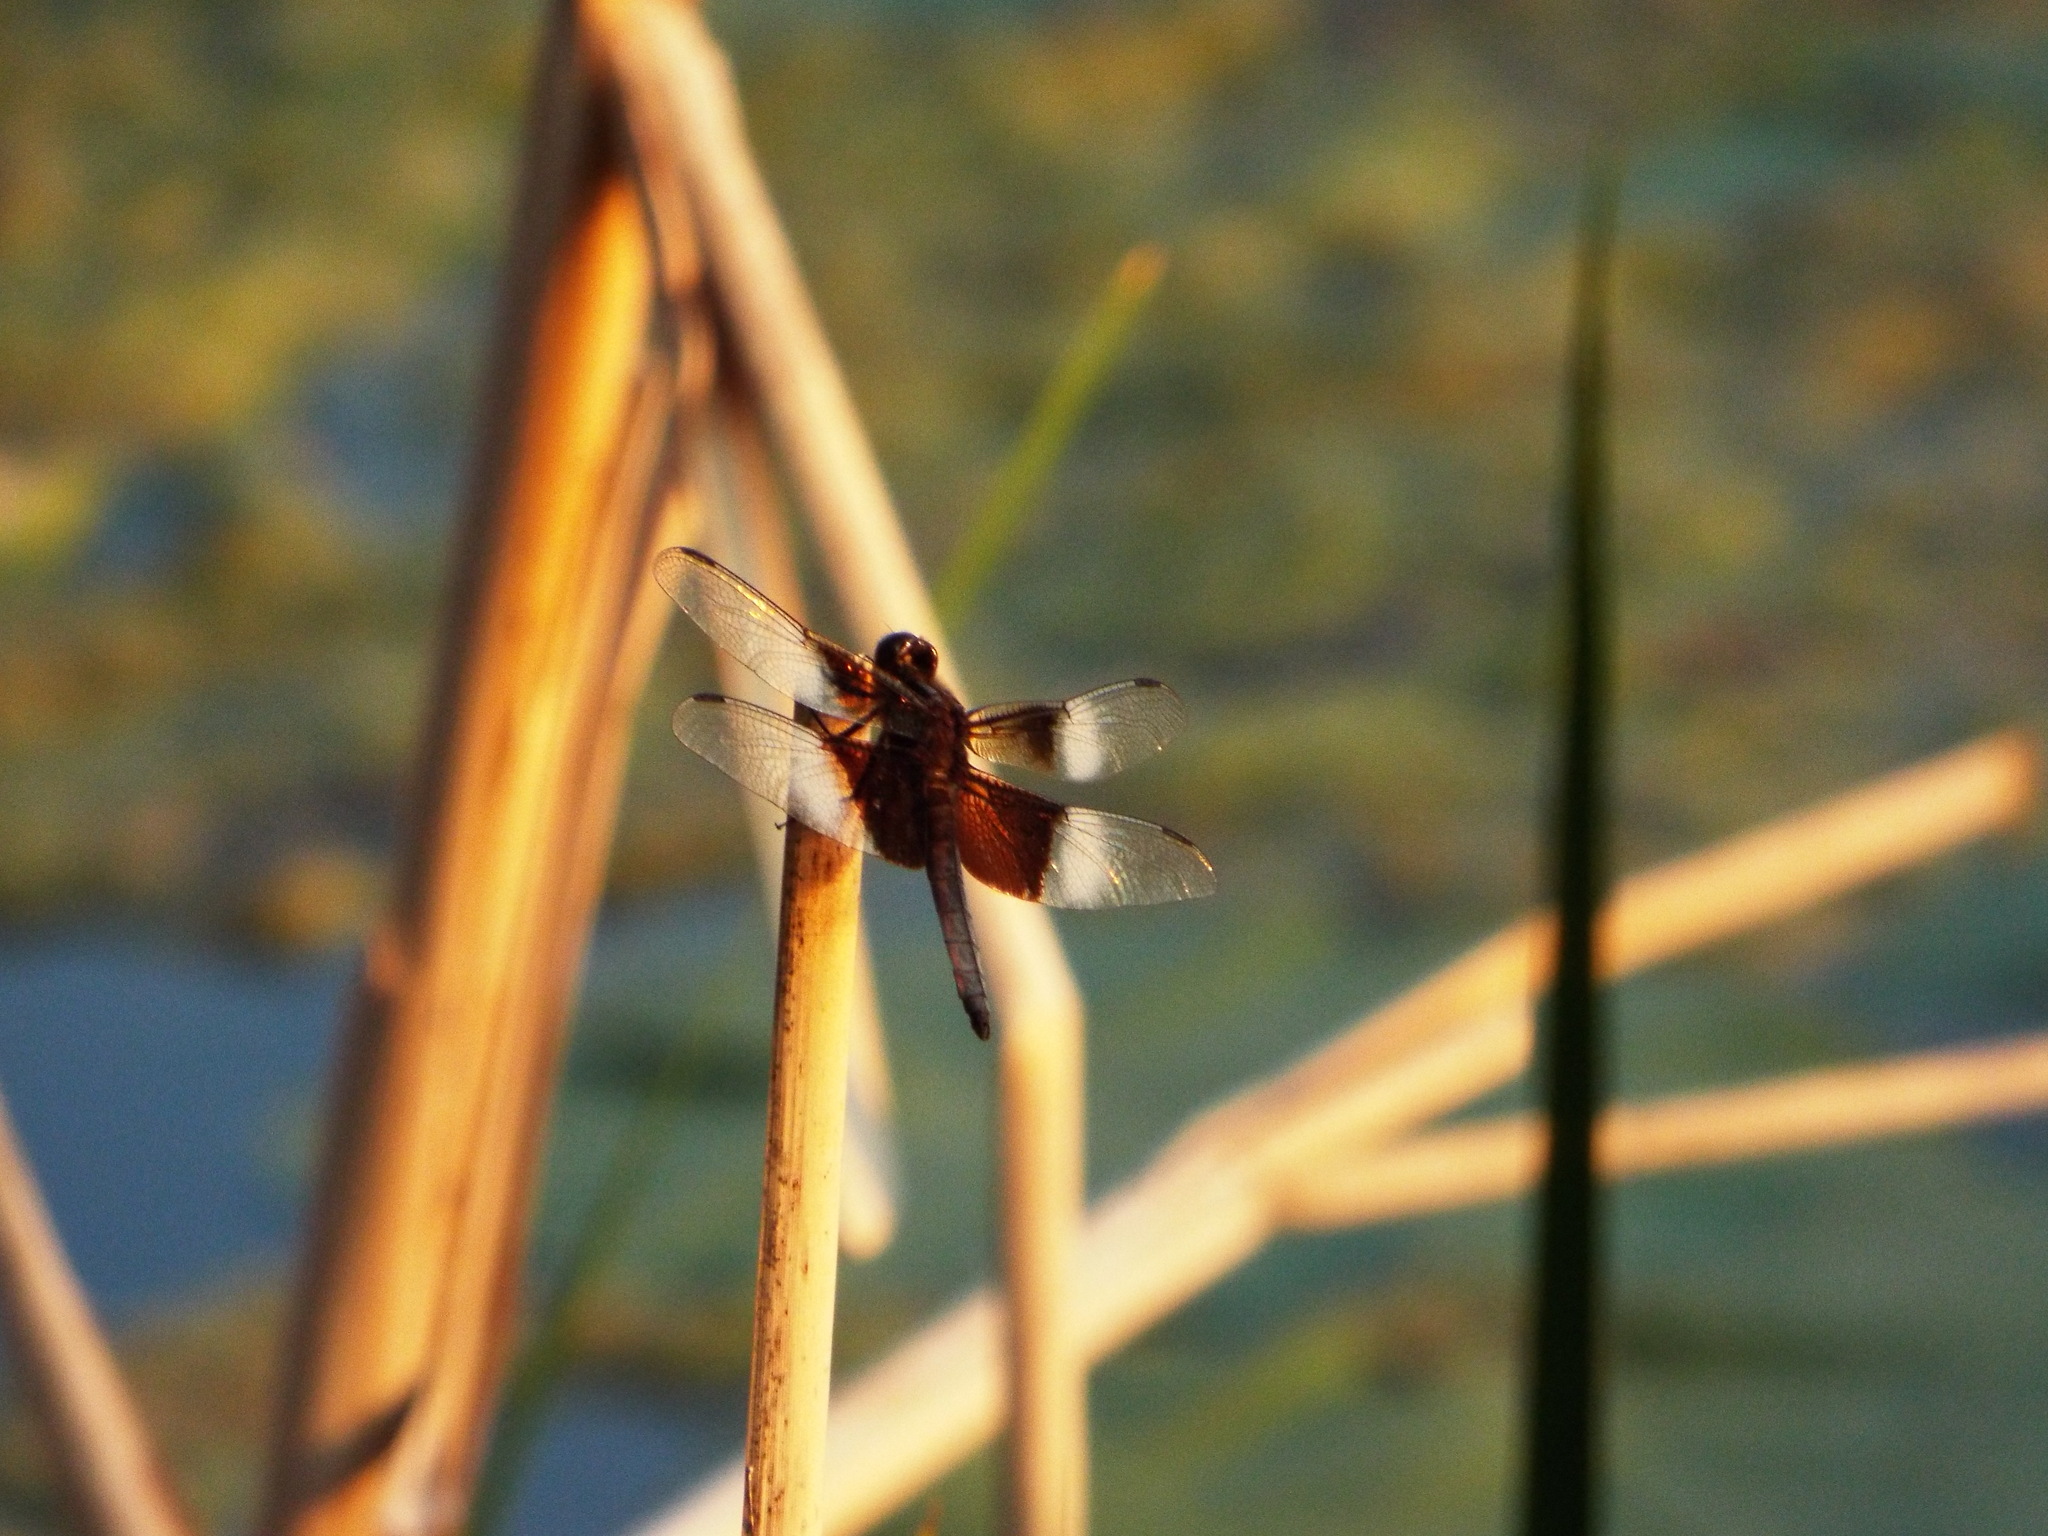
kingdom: Animalia
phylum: Arthropoda
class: Insecta
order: Odonata
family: Libellulidae
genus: Libellula
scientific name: Libellula luctuosa
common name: Widow skimmer
